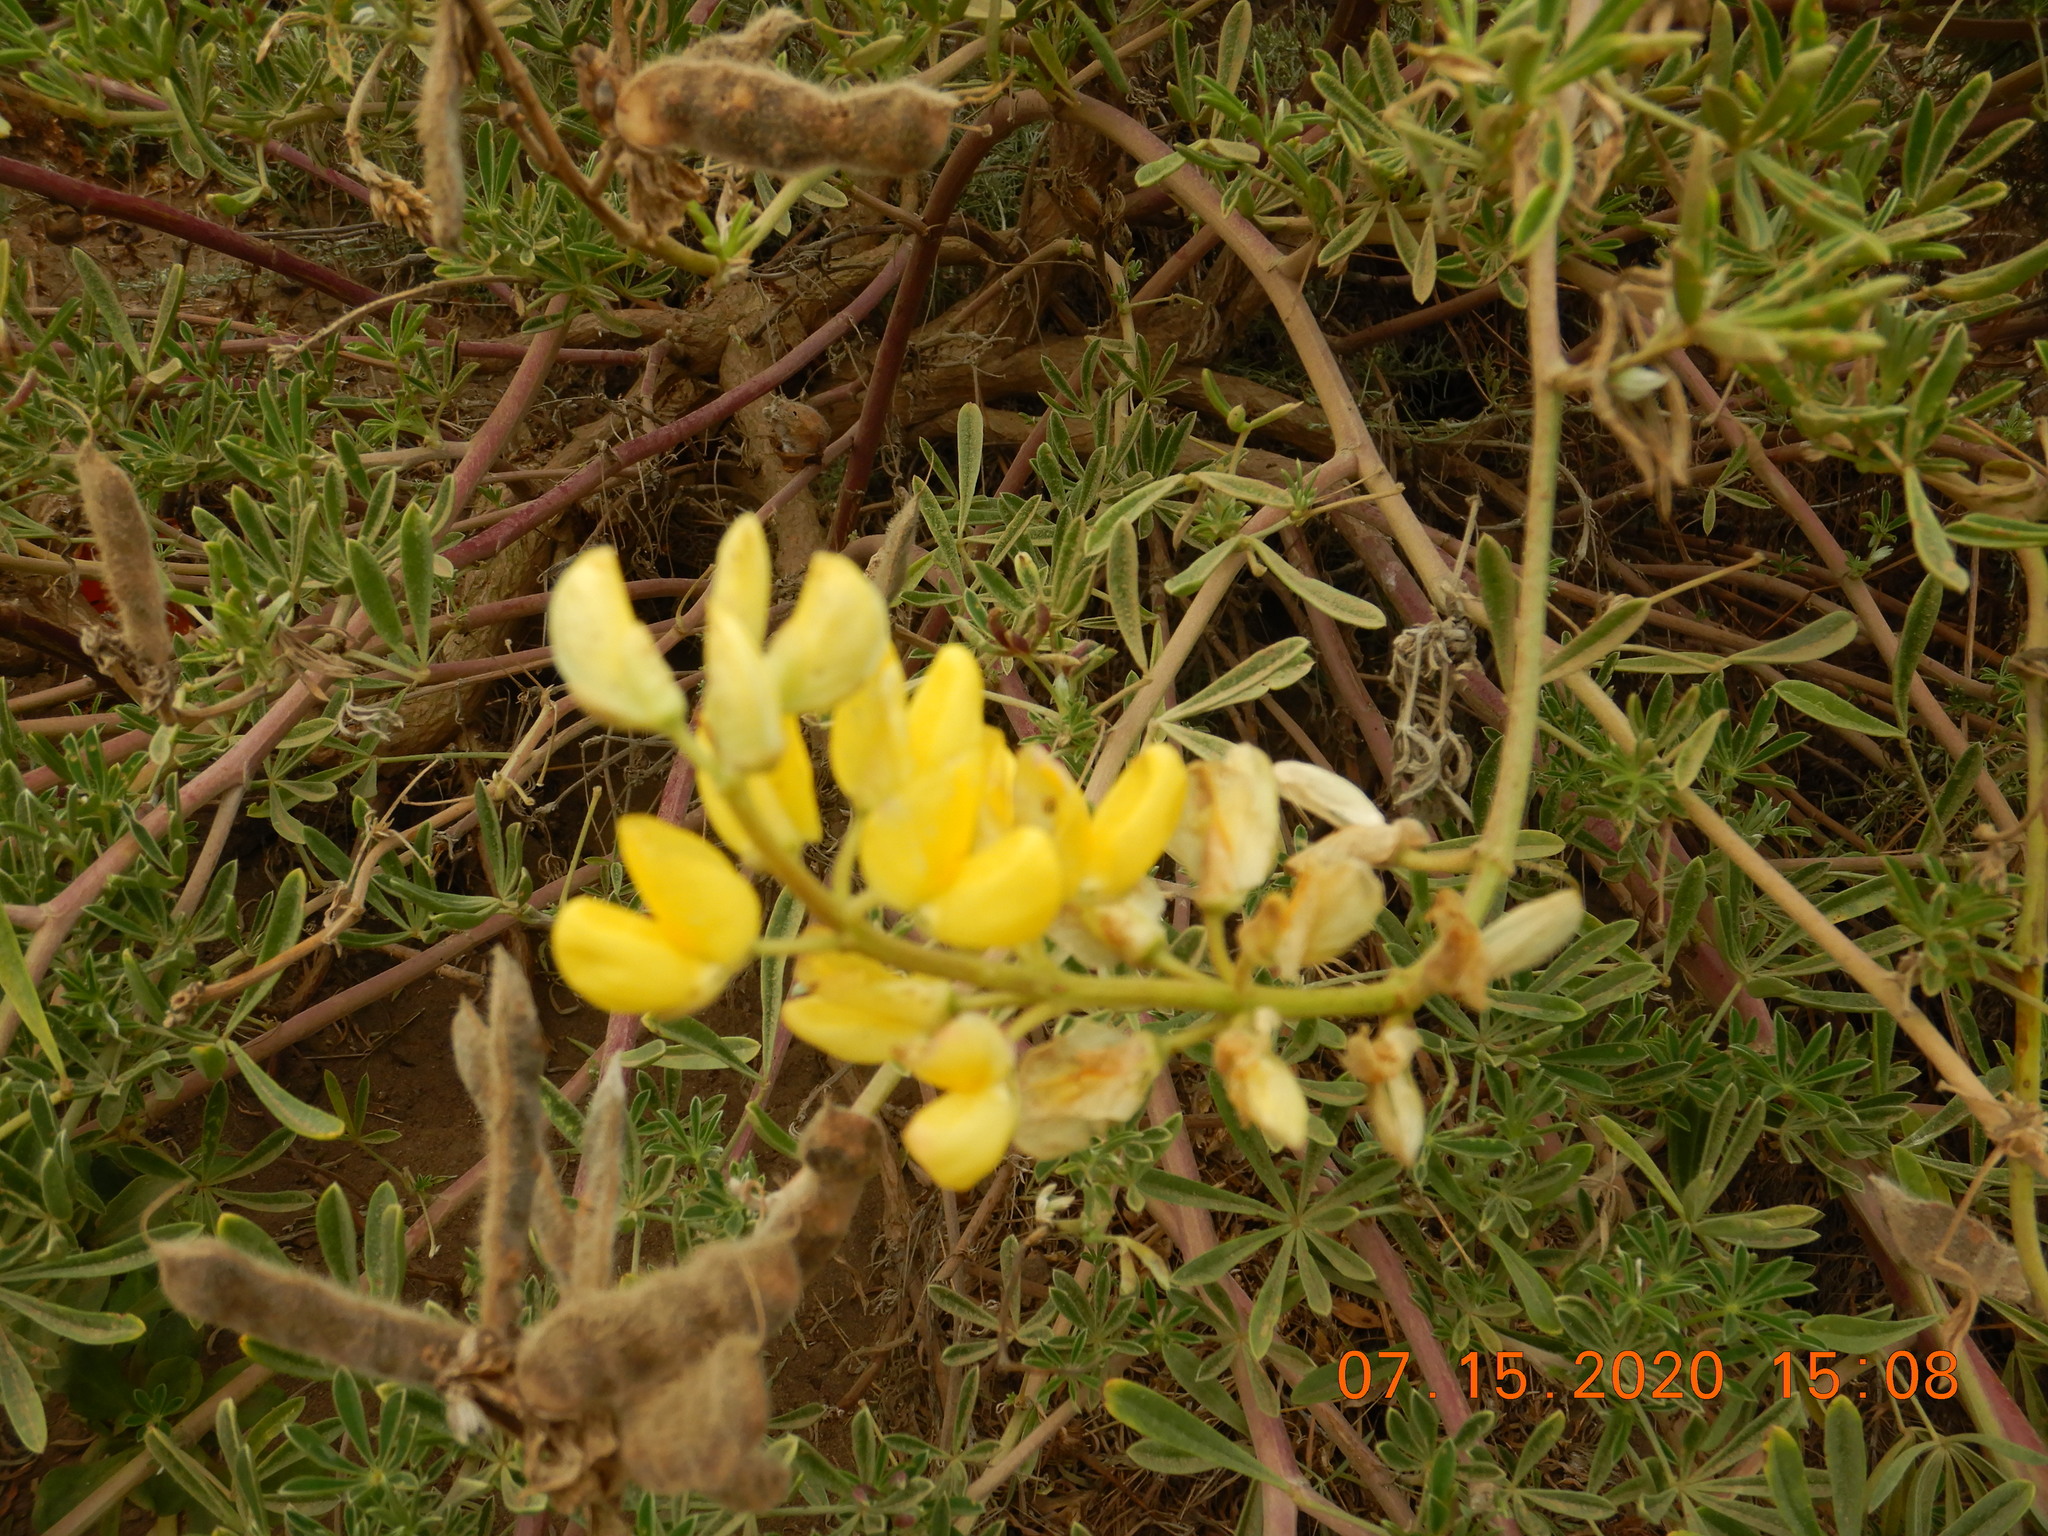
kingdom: Plantae
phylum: Tracheophyta
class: Magnoliopsida
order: Fabales
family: Fabaceae
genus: Lupinus
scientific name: Lupinus arboreus
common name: Yellow bush lupine
